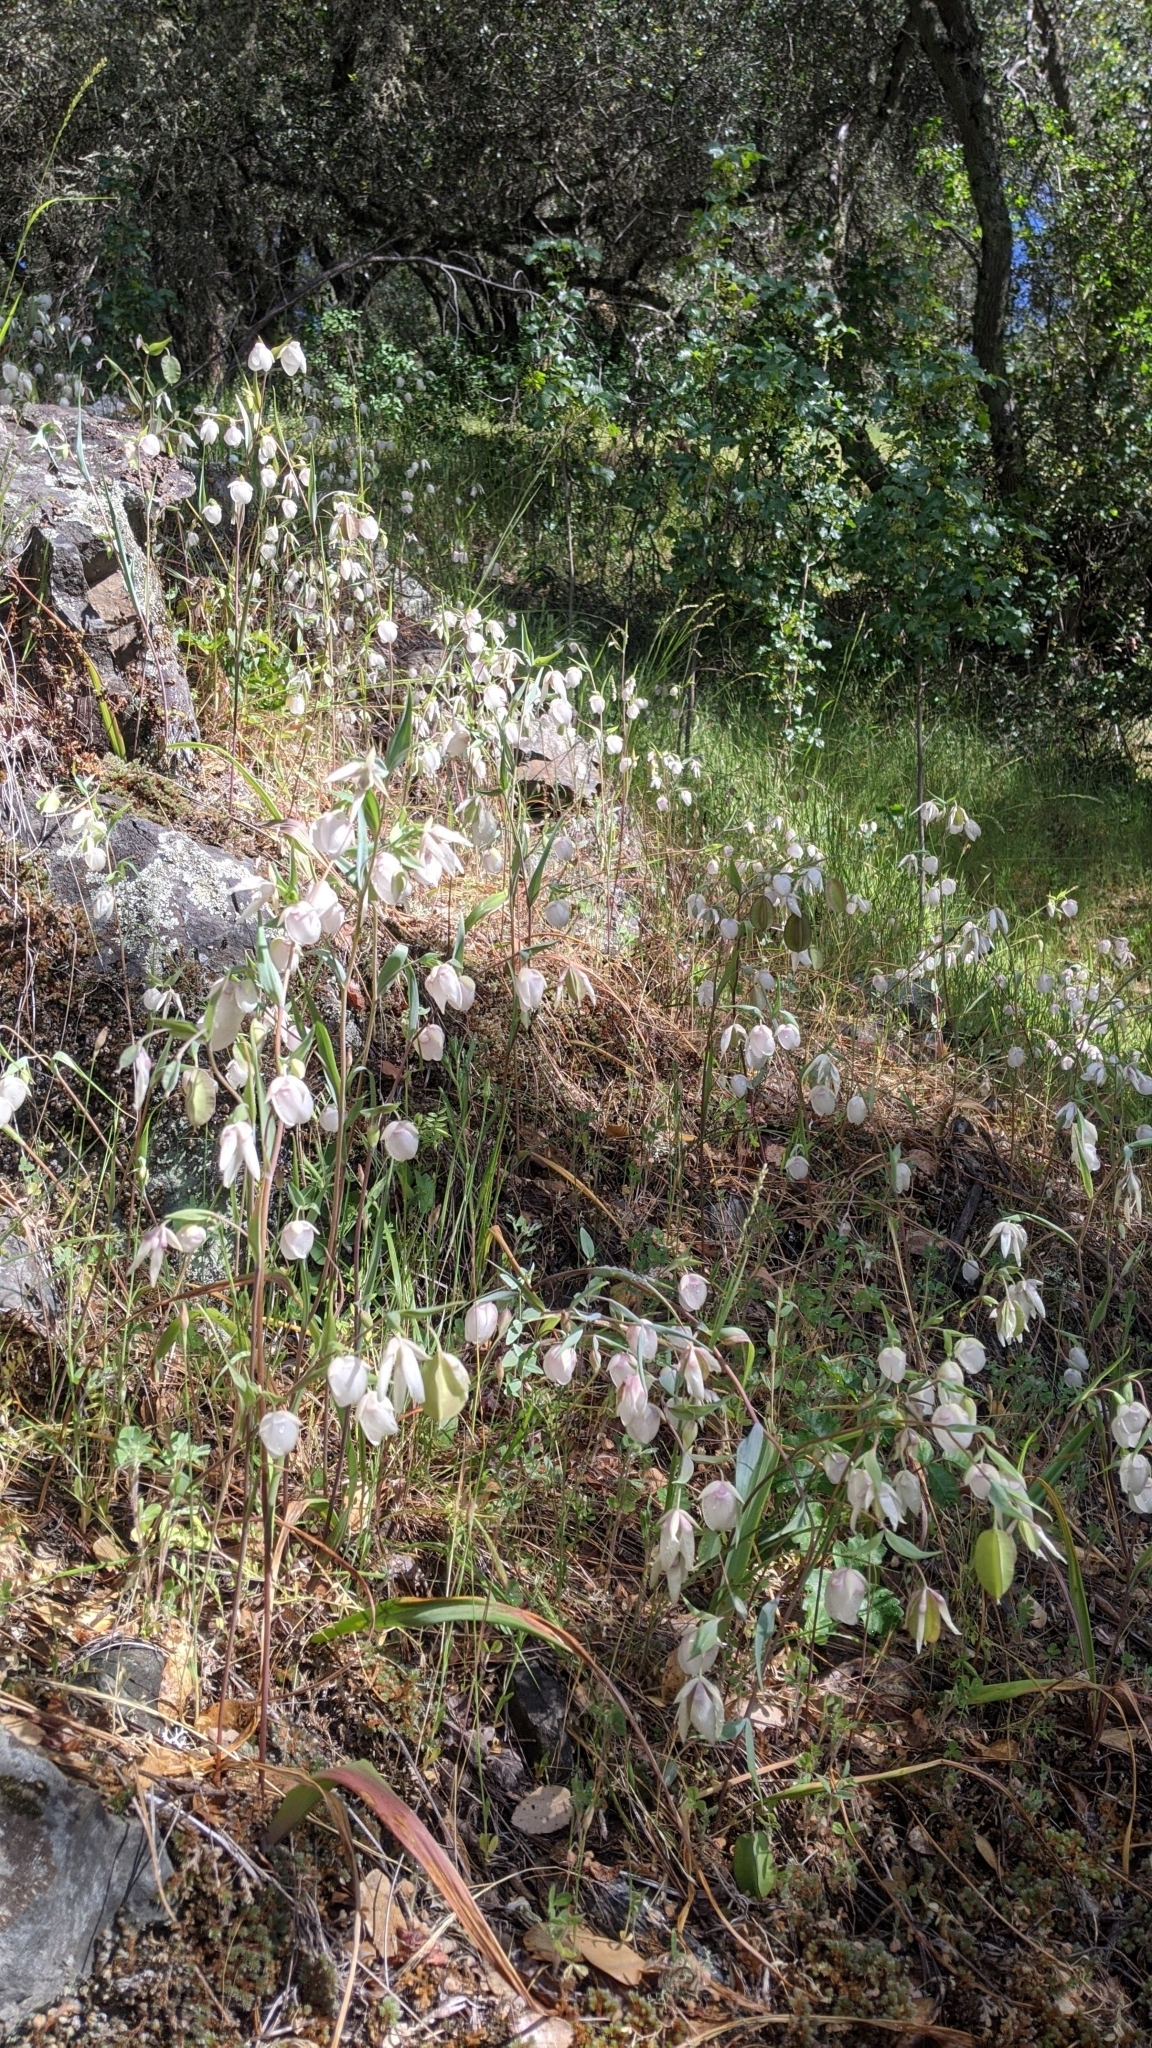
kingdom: Plantae
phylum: Tracheophyta
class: Liliopsida
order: Liliales
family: Liliaceae
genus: Calochortus
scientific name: Calochortus albus
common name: Fairy-lantern
